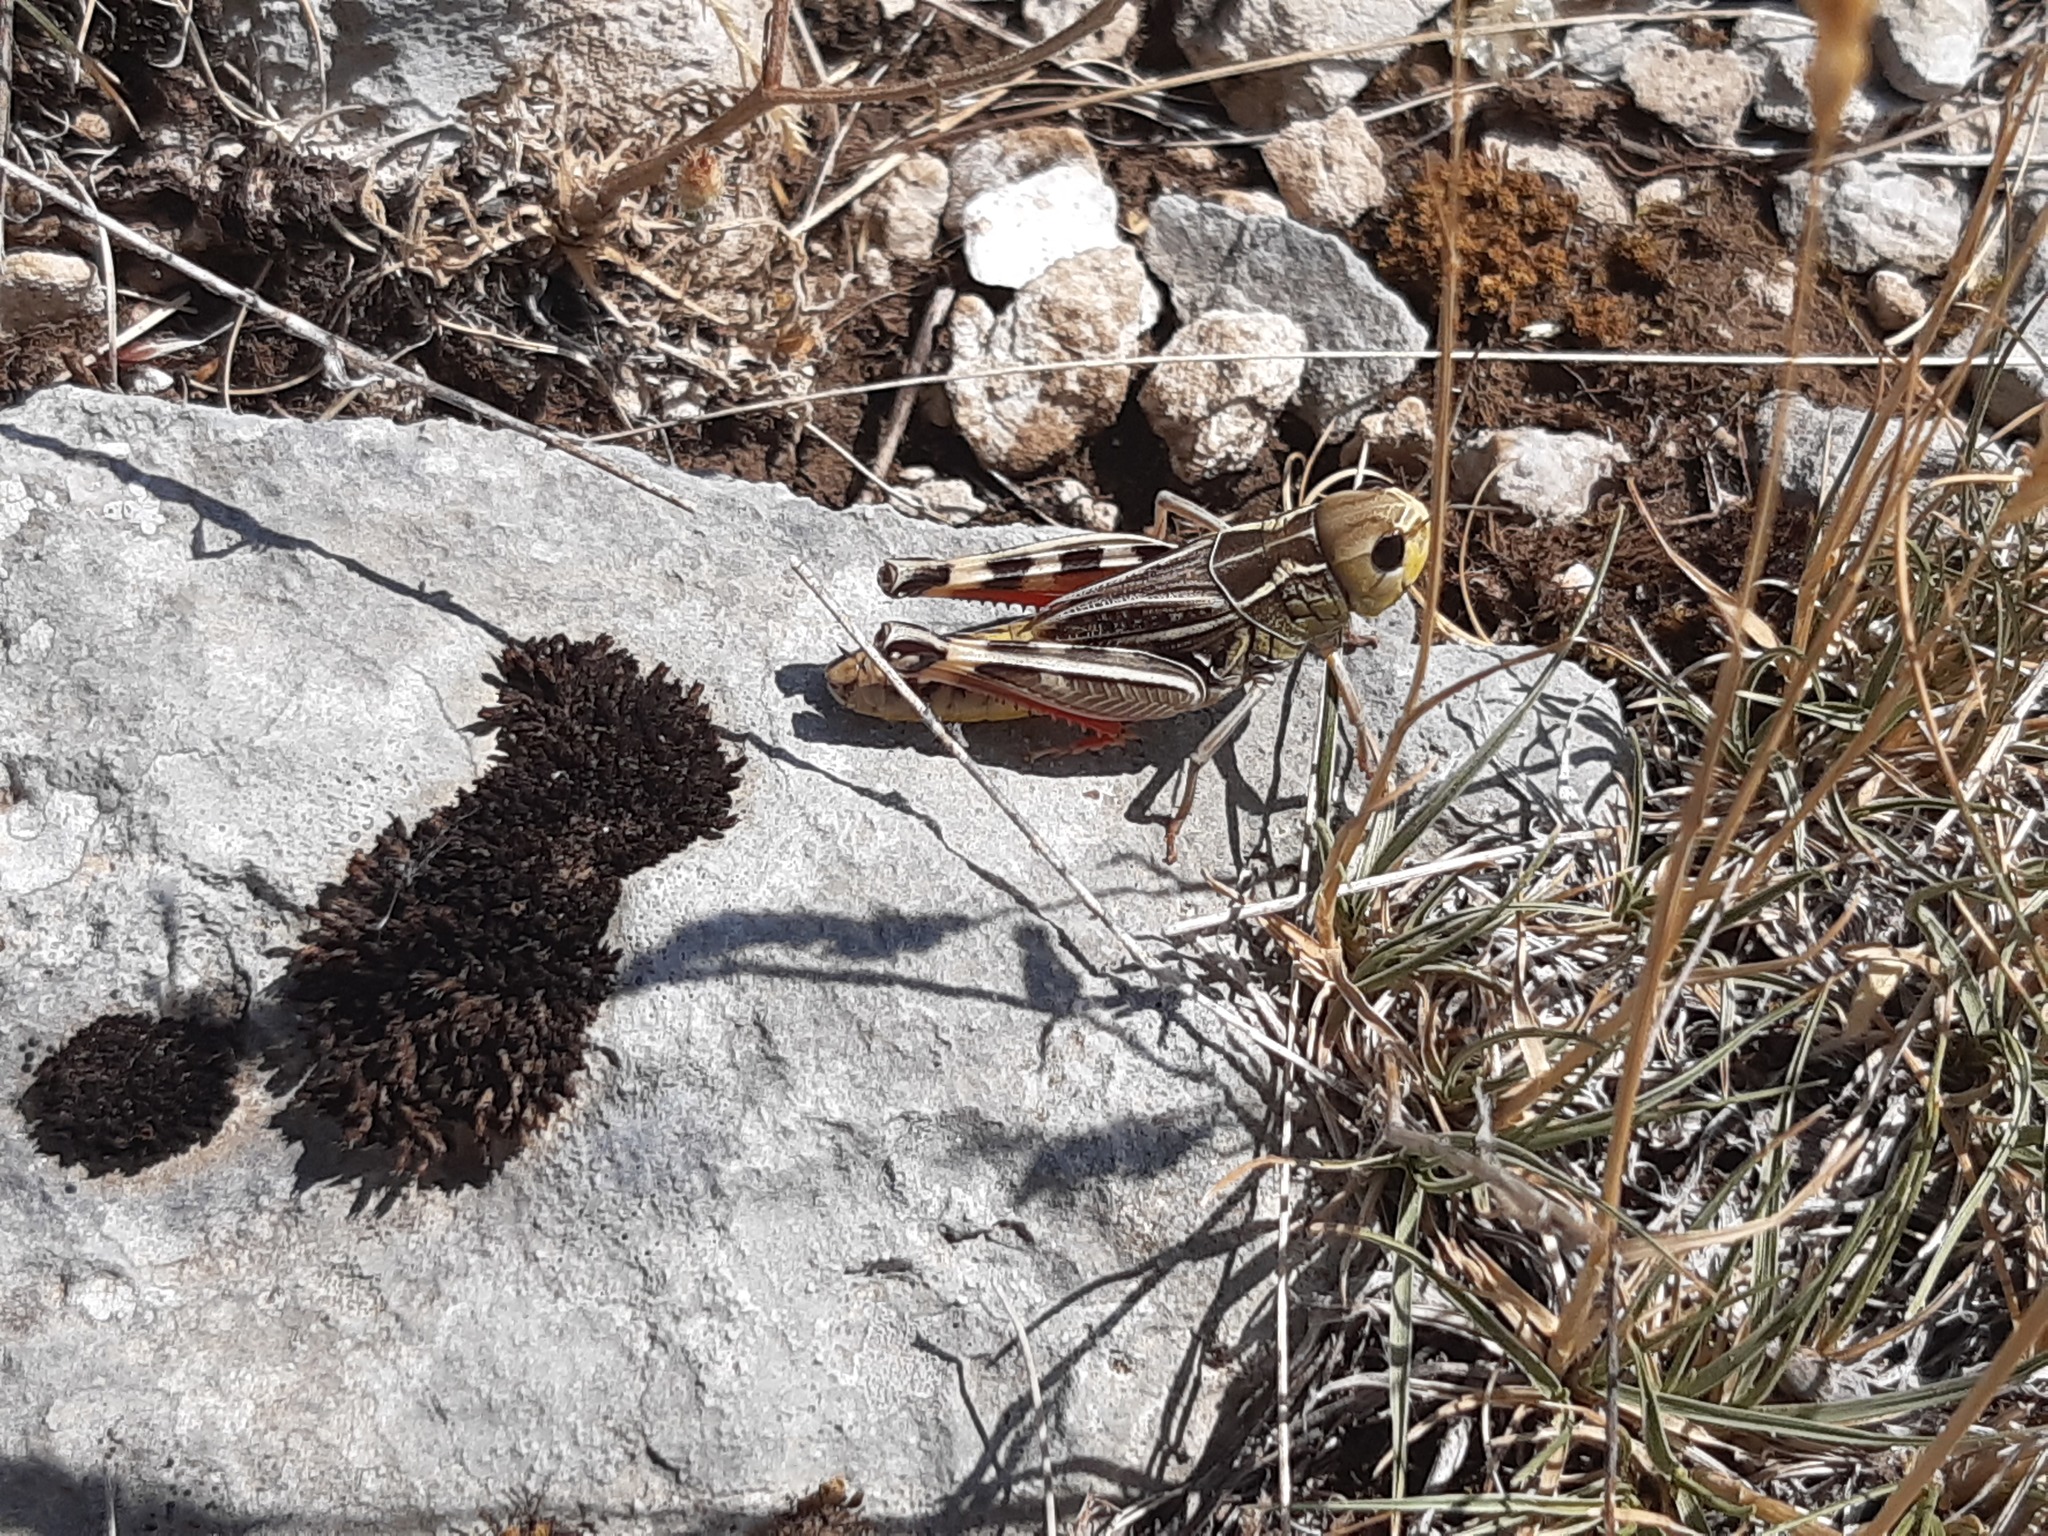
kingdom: Animalia
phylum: Arthropoda
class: Insecta
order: Orthoptera
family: Acrididae
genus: Arcyptera
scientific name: Arcyptera brevipennis
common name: Western banded grasshopper
